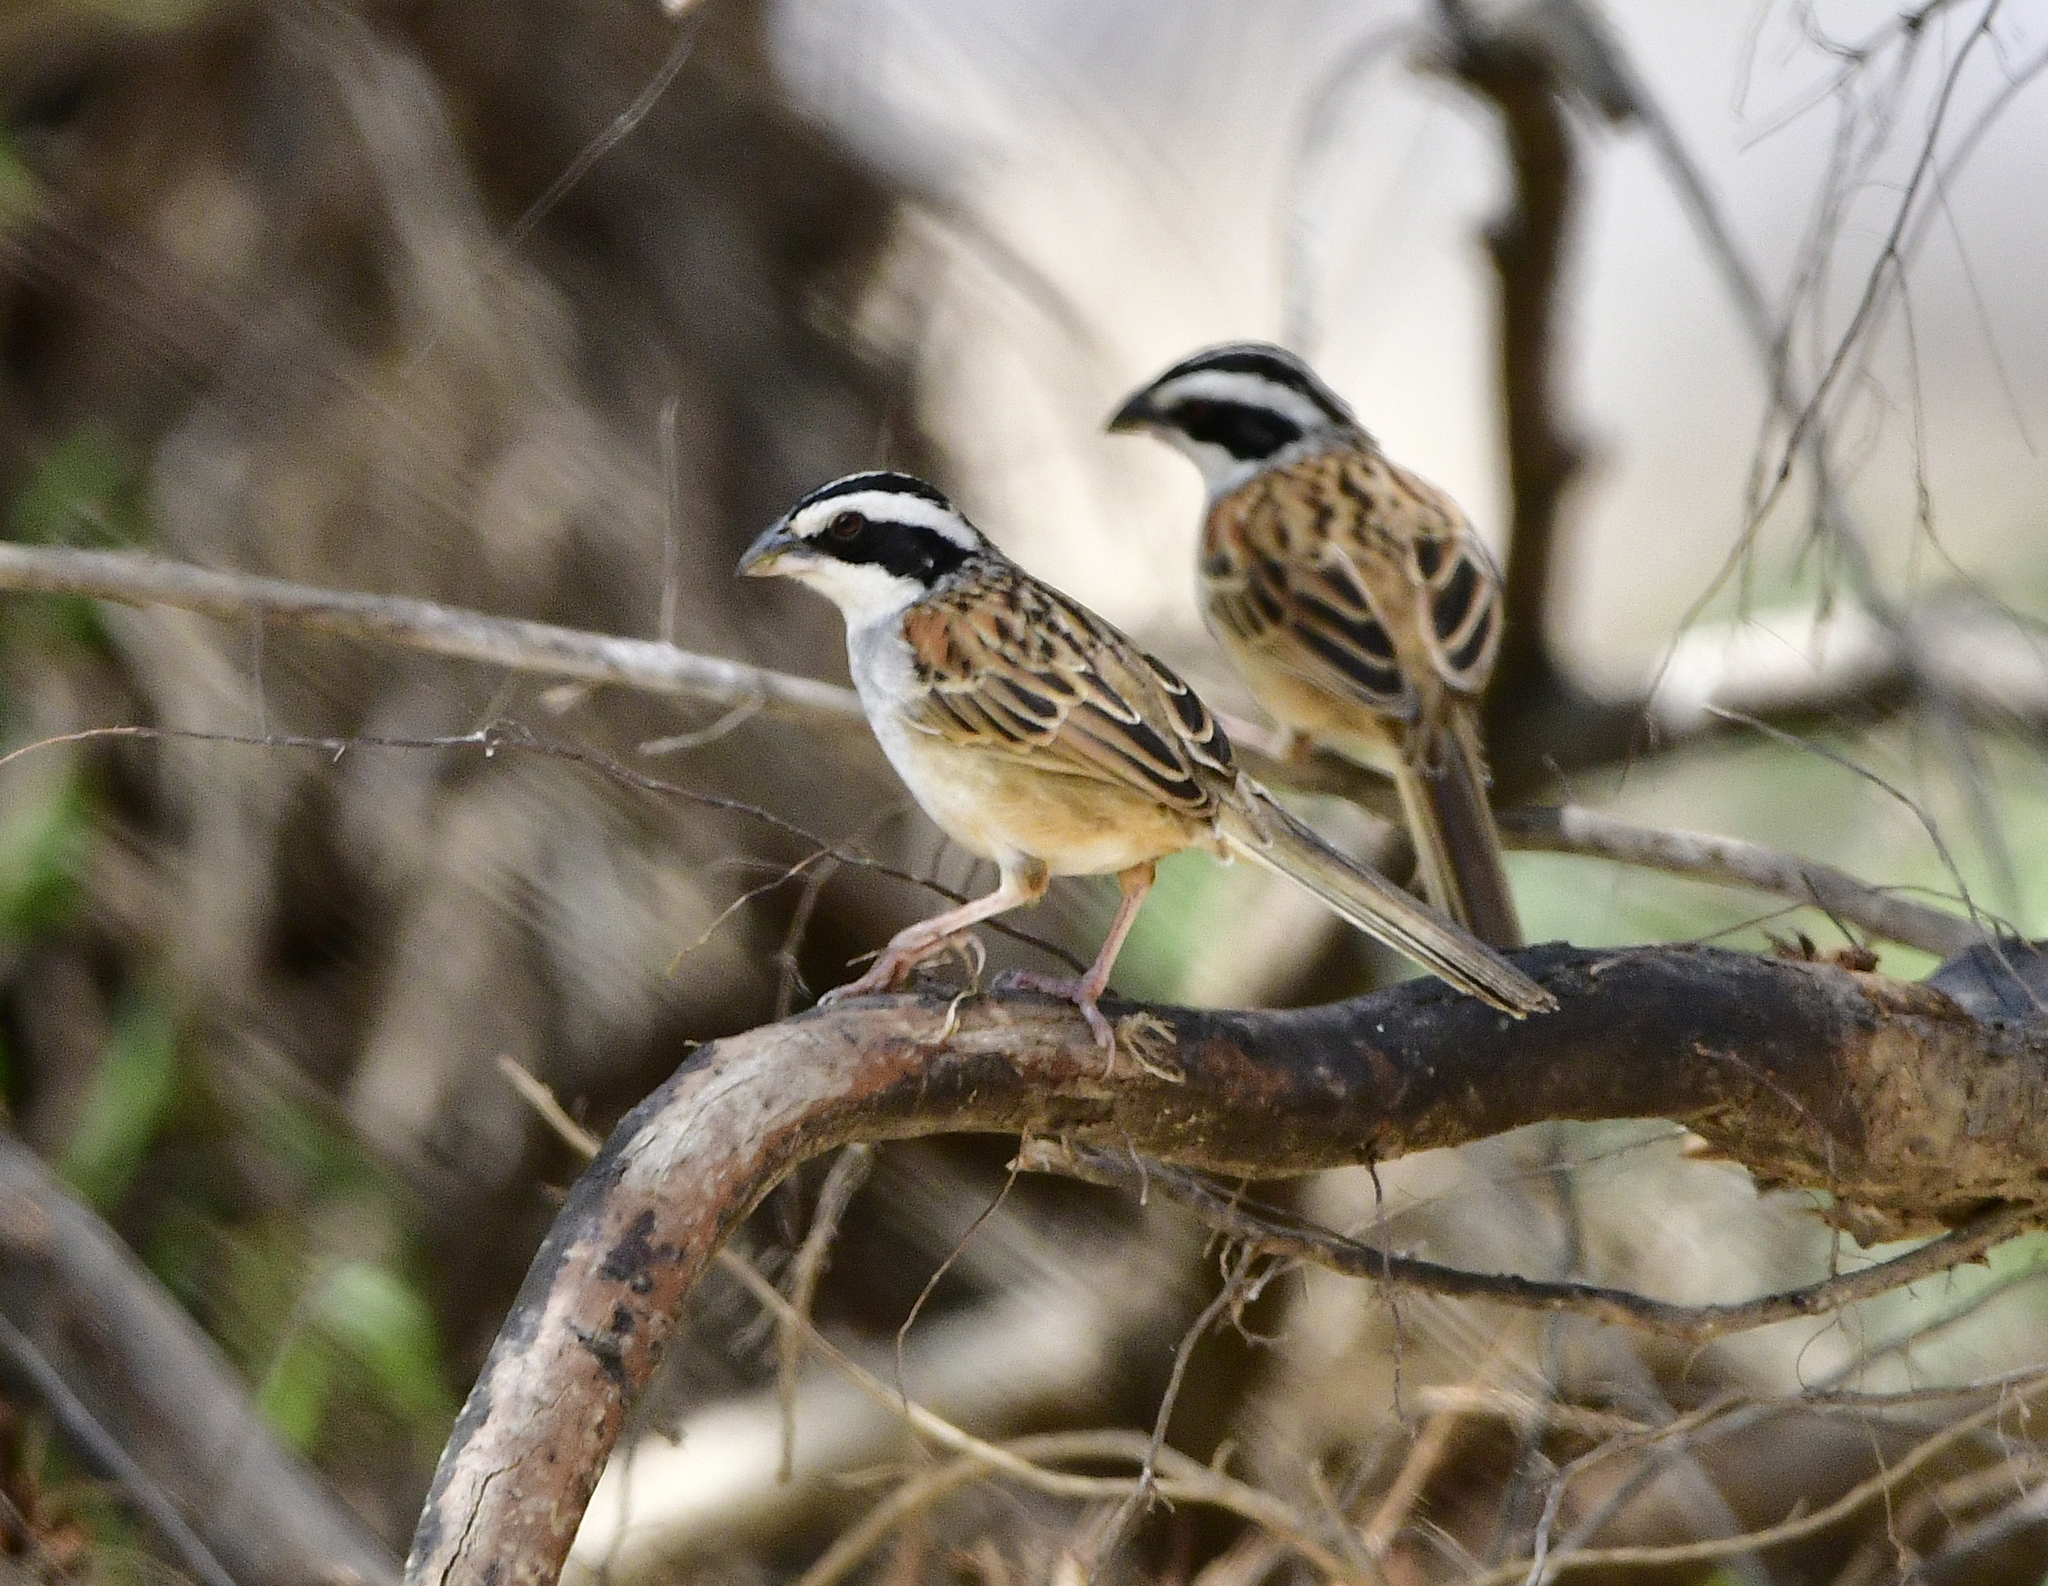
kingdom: Animalia
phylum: Chordata
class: Aves
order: Passeriformes
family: Passerellidae
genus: Peucaea
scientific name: Peucaea ruficauda
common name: Stripe-headed sparrow
